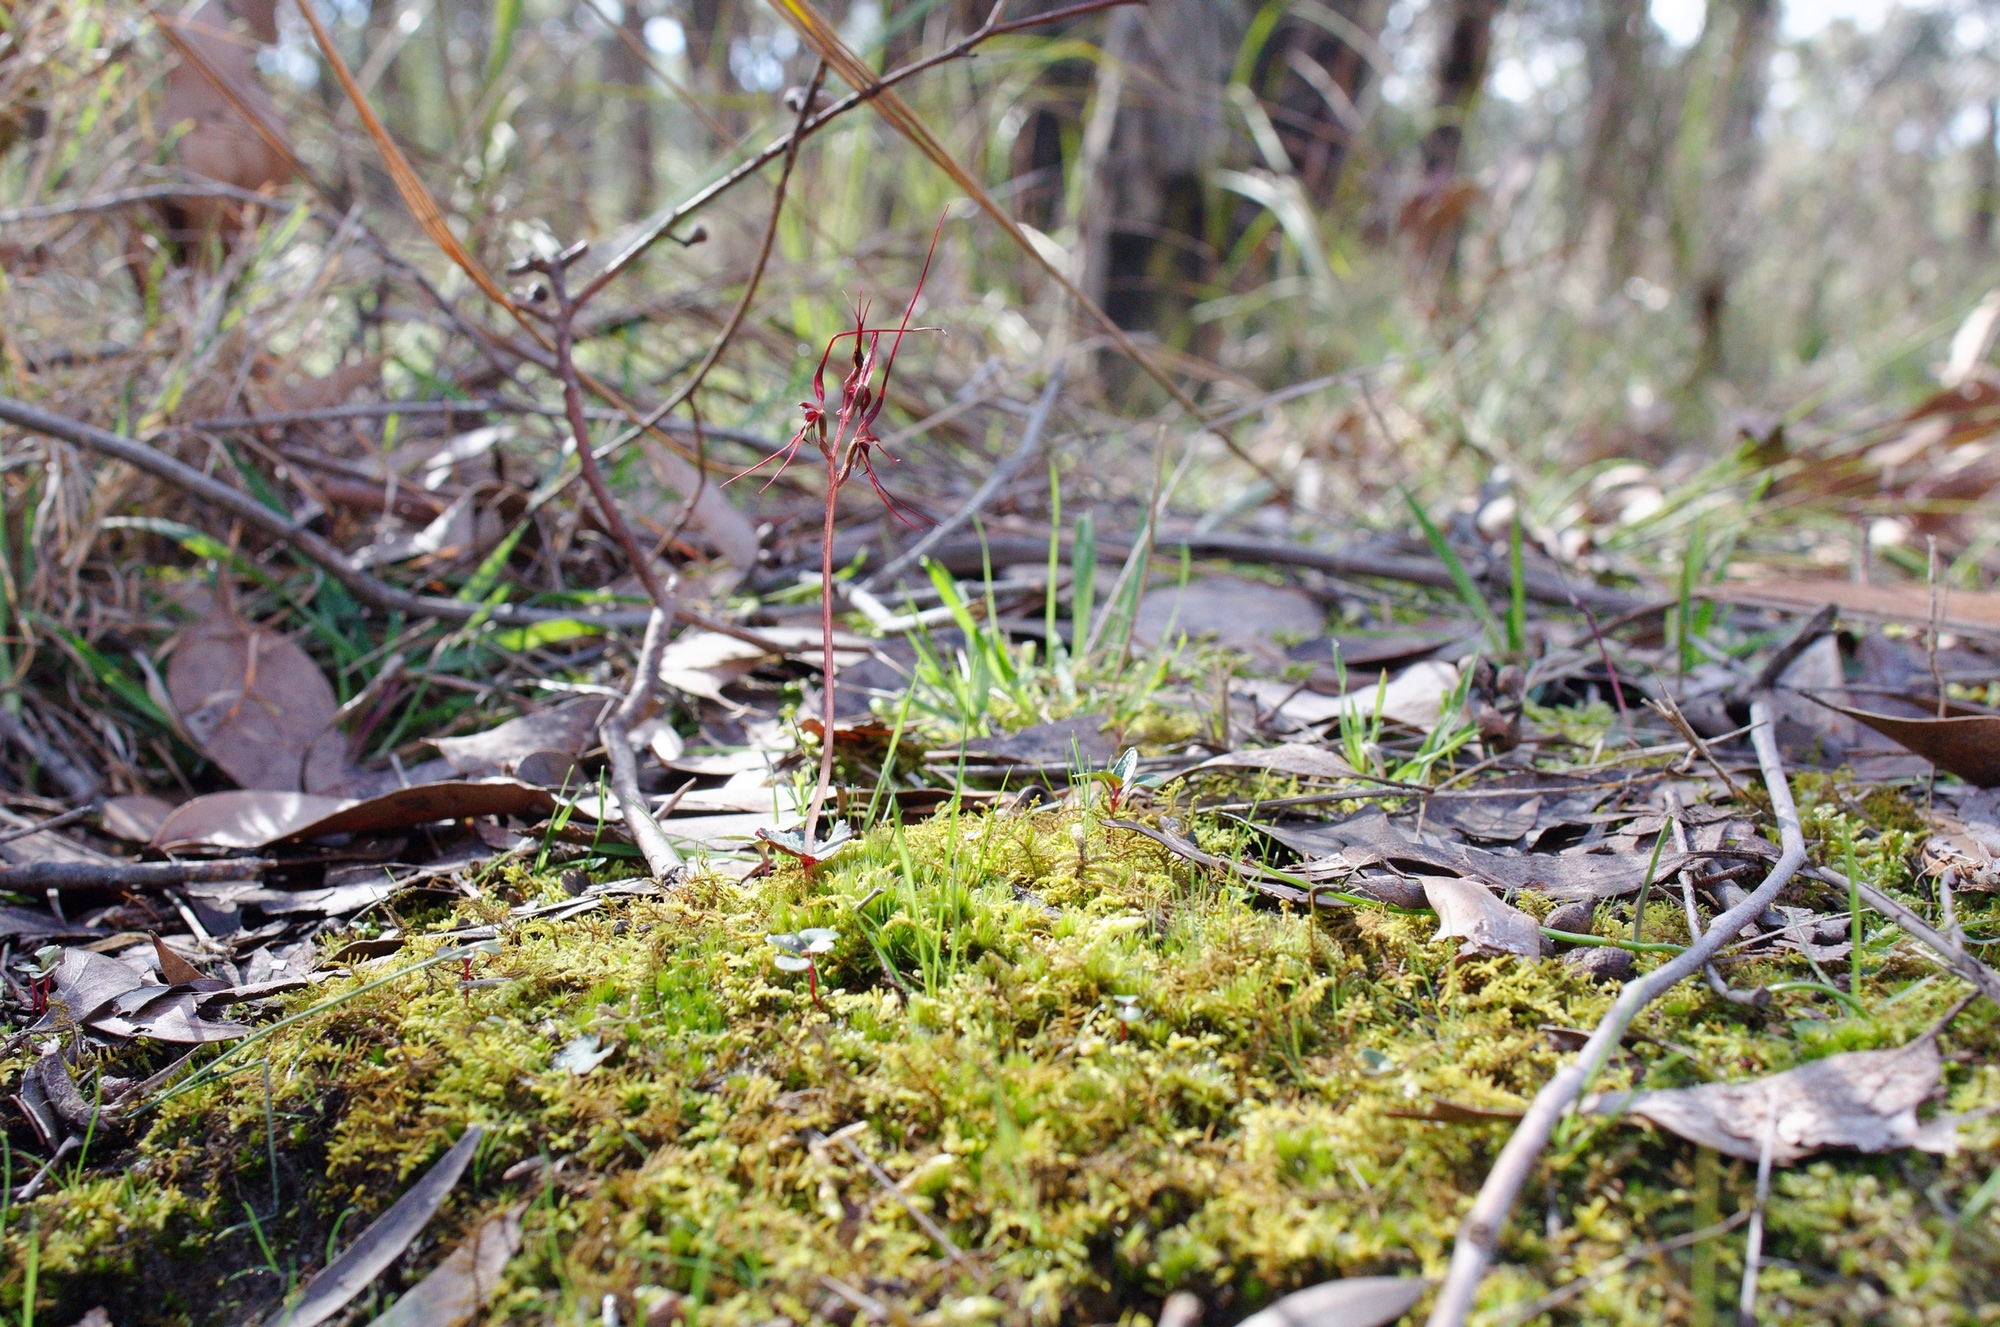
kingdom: Plantae
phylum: Tracheophyta
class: Liliopsida
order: Asparagales
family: Orchidaceae
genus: Acianthus
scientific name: Acianthus caudatus
